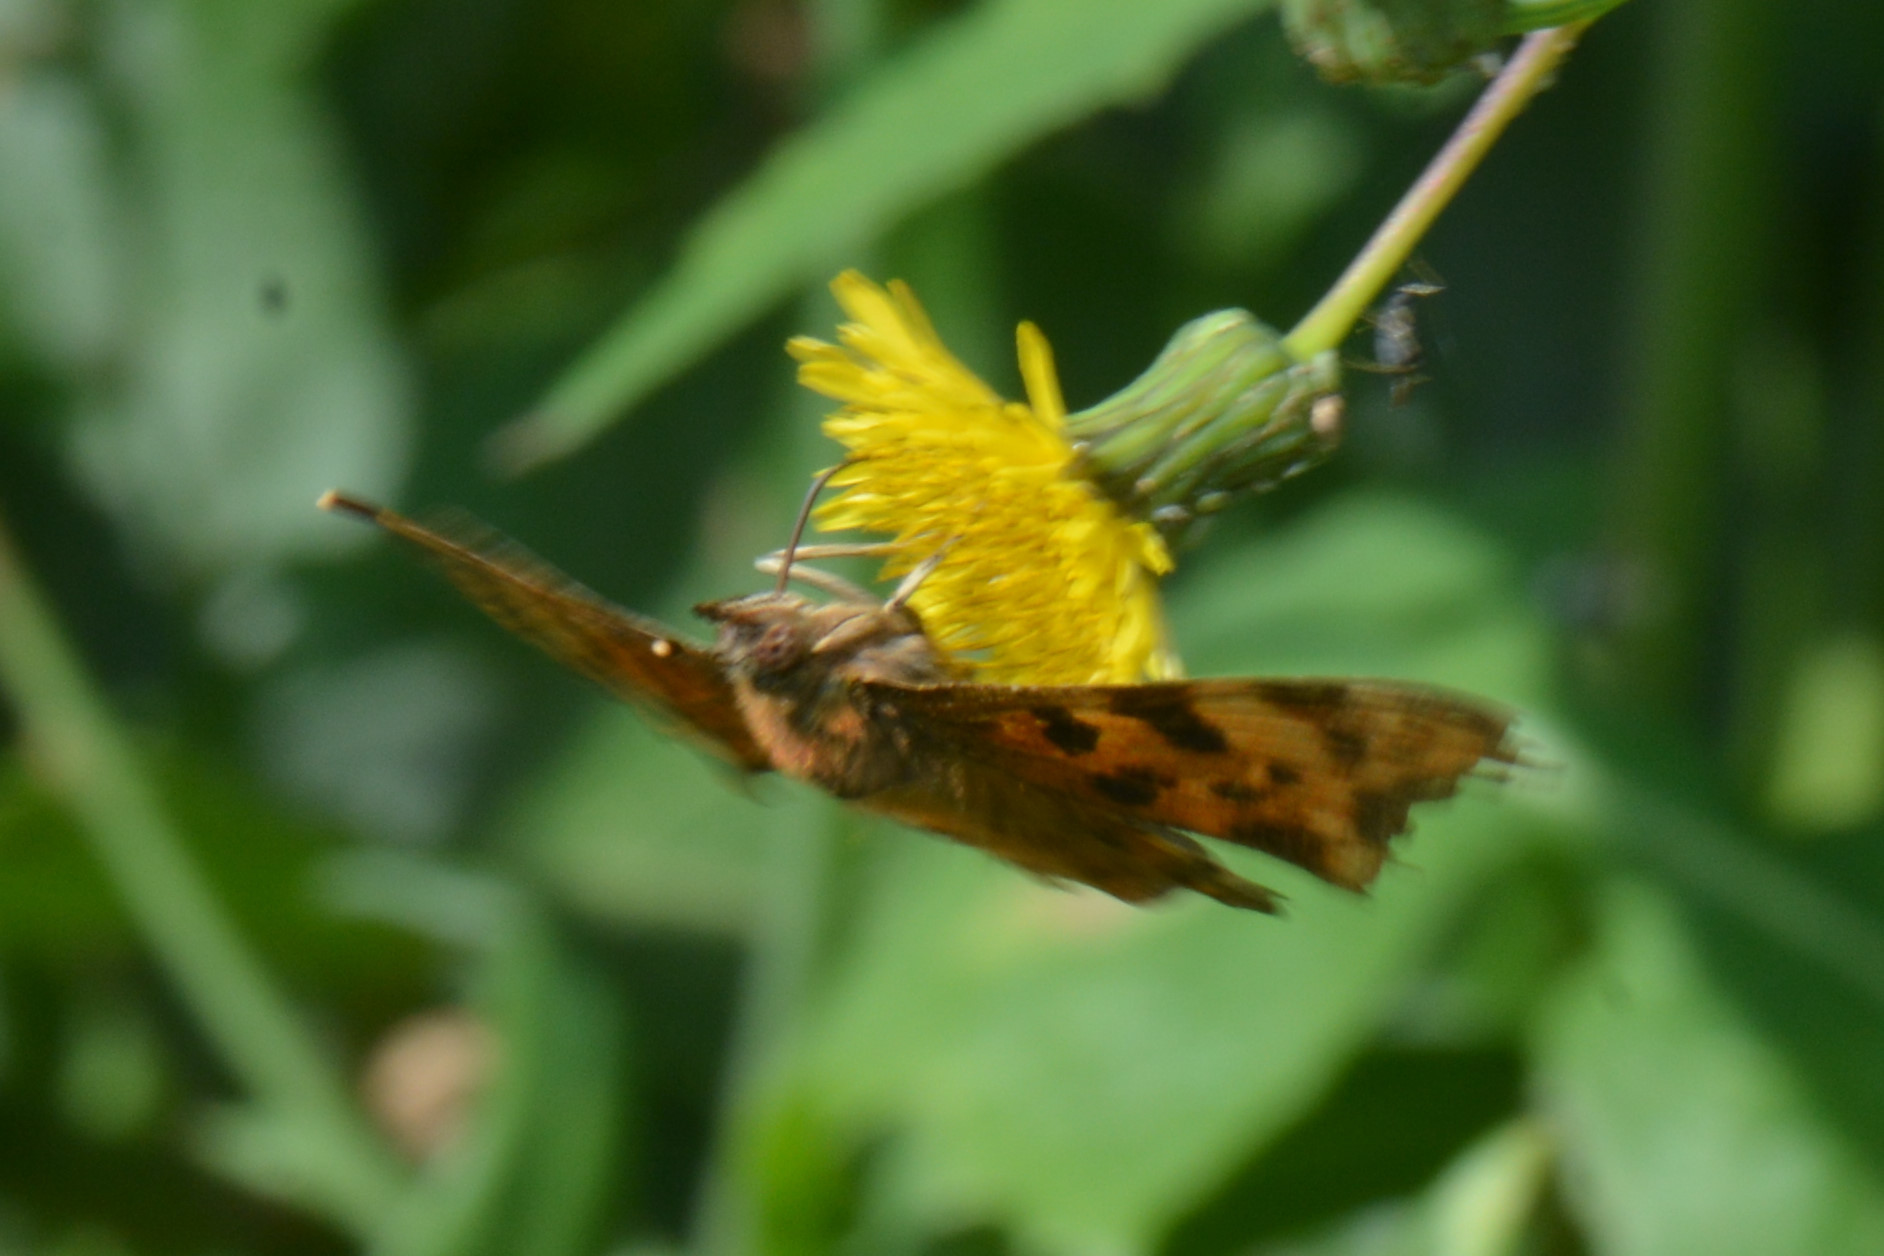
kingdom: Animalia
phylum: Arthropoda
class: Insecta
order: Lepidoptera
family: Nymphalidae
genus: Polygonia
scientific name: Polygonia c-album
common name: Comma
